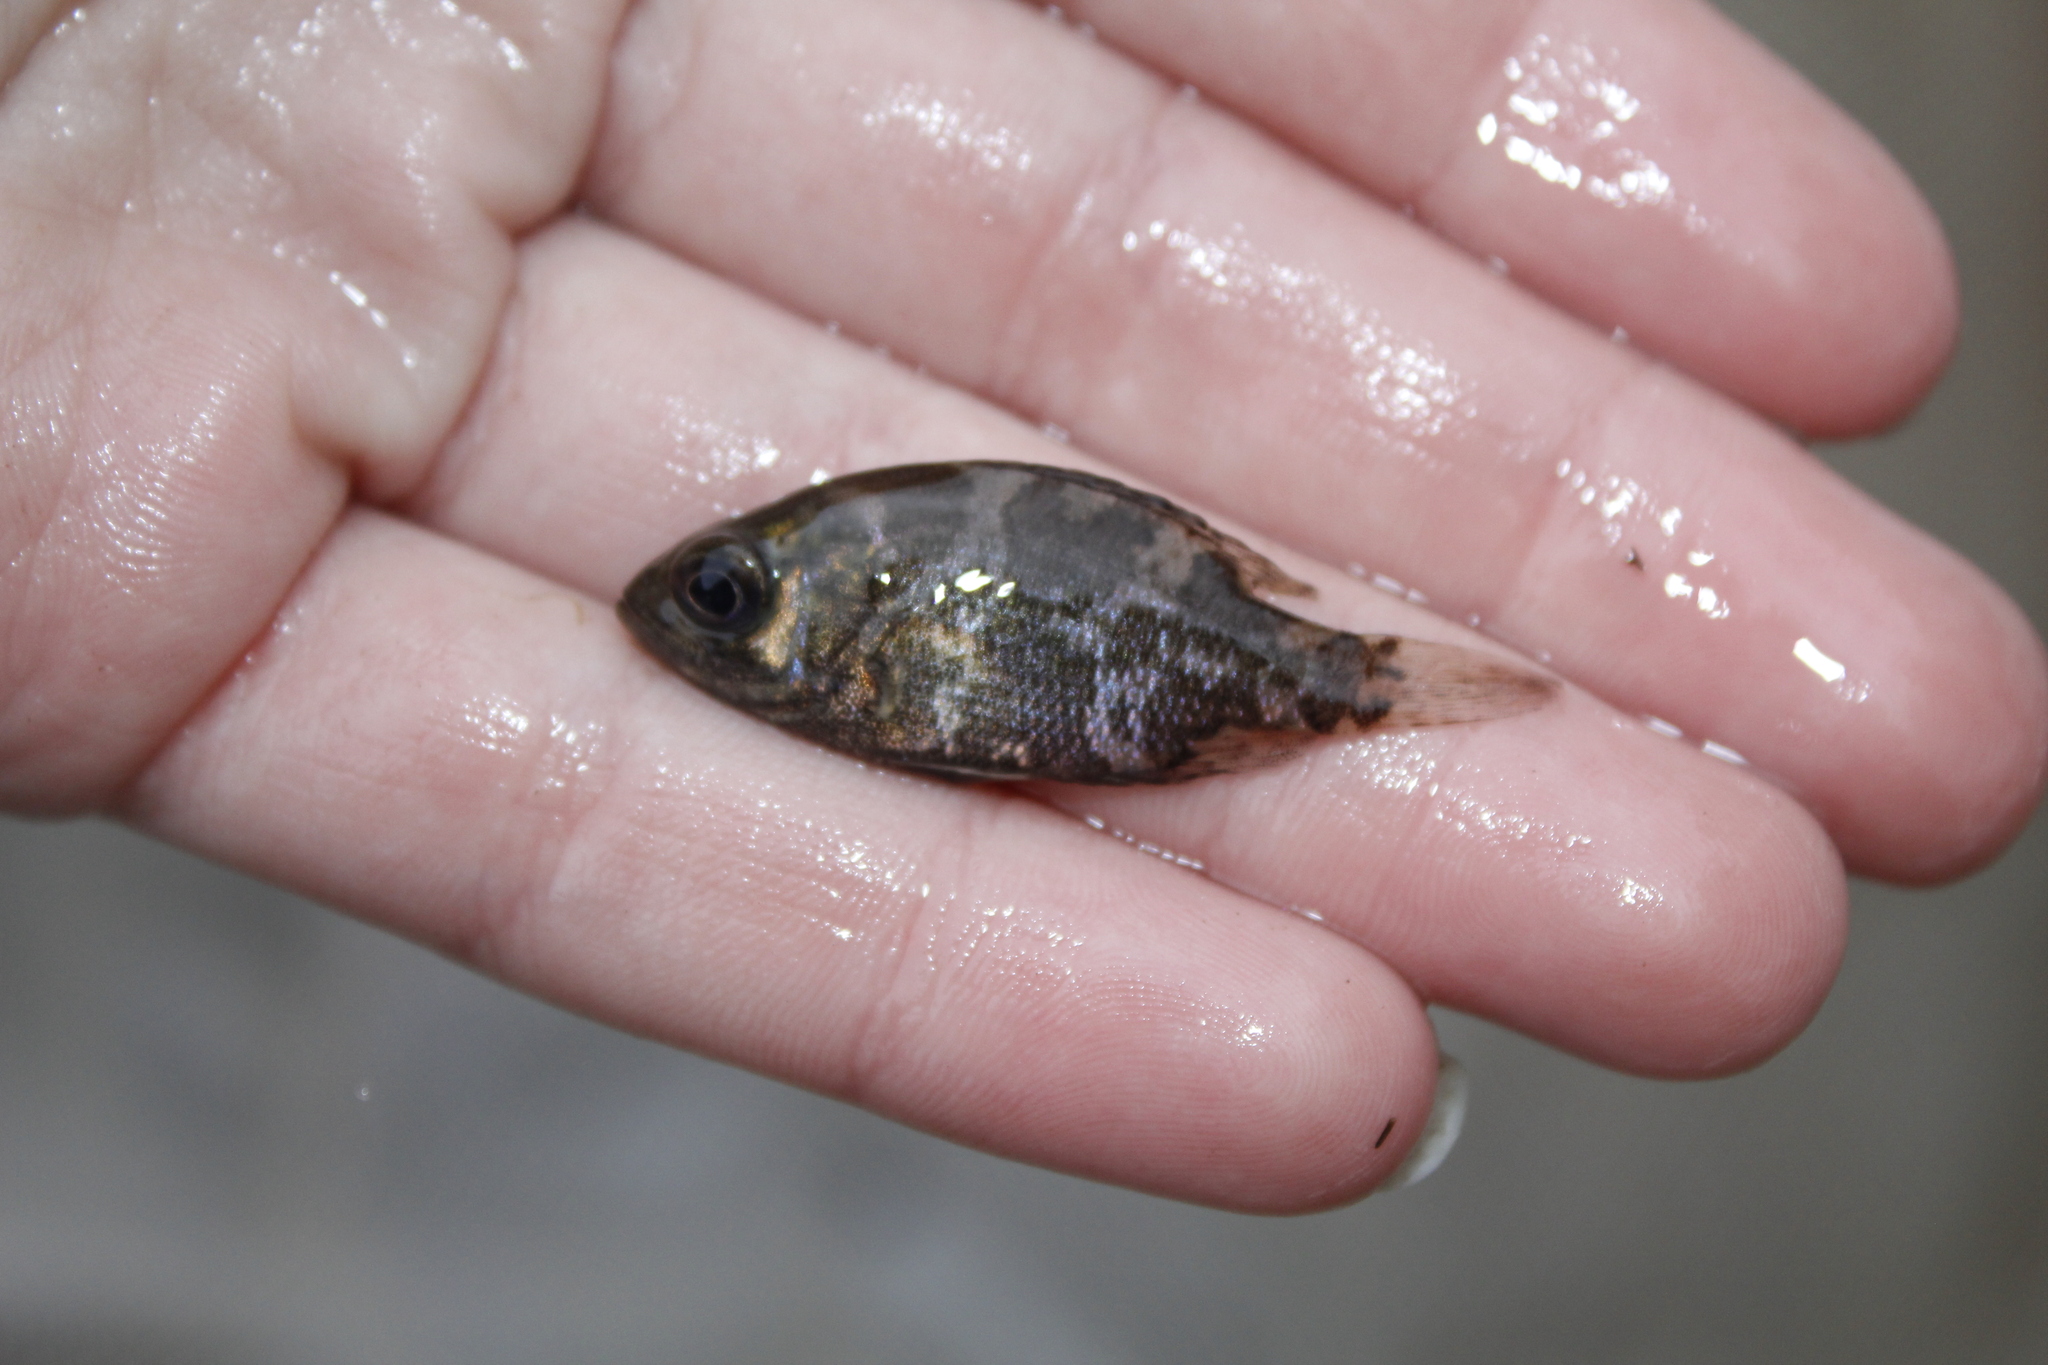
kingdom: Animalia
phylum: Chordata
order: Perciformes
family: Centrarchidae
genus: Ambloplites
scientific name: Ambloplites rupestris
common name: Rock bass
